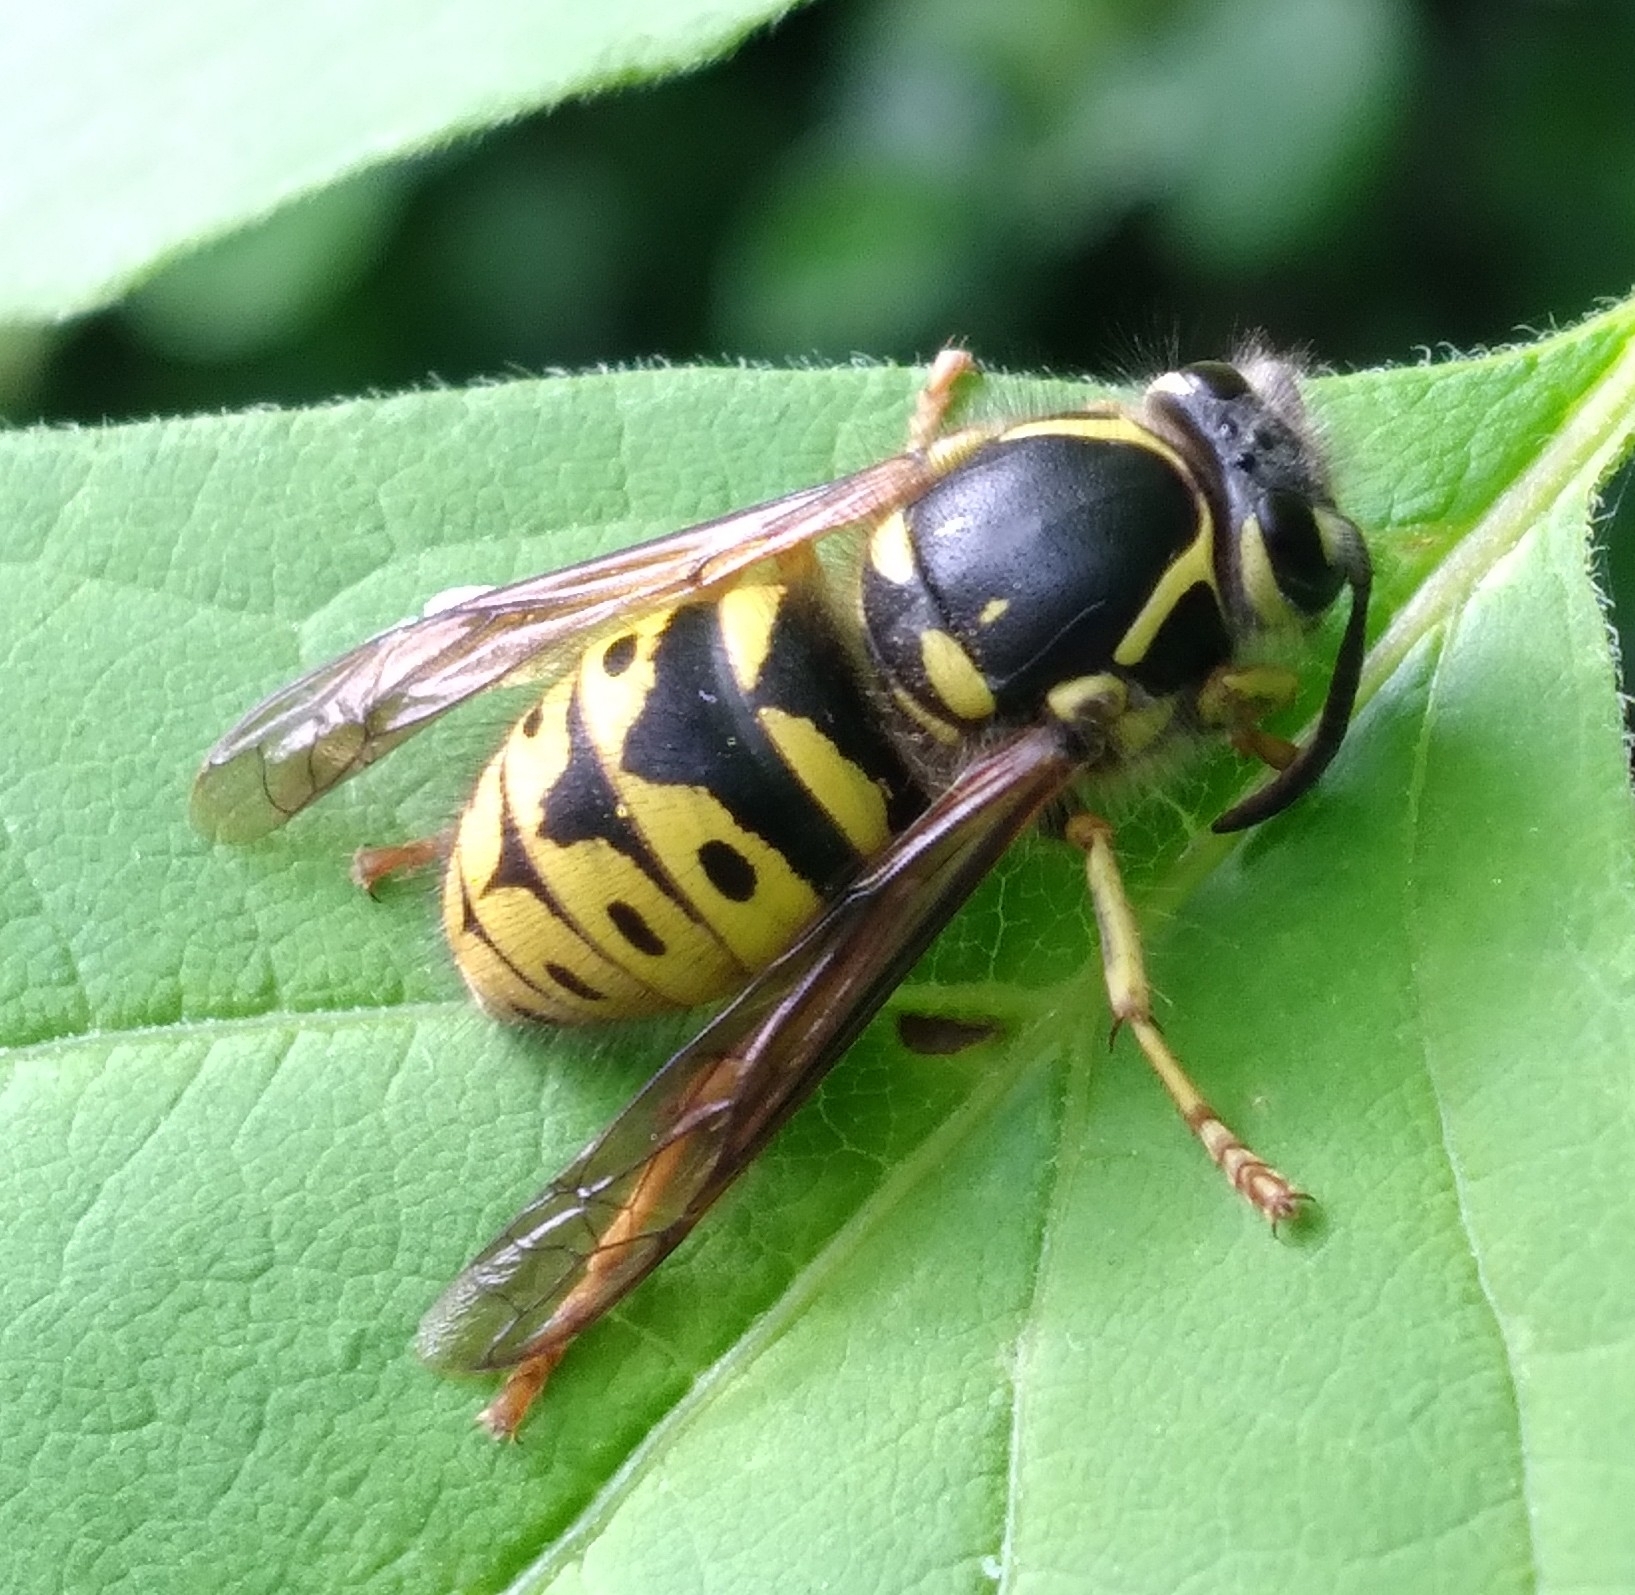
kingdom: Animalia
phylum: Arthropoda
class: Insecta
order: Hymenoptera
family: Vespidae
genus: Dolichovespula
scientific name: Dolichovespula arenaria
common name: Aerial yellowjacket
